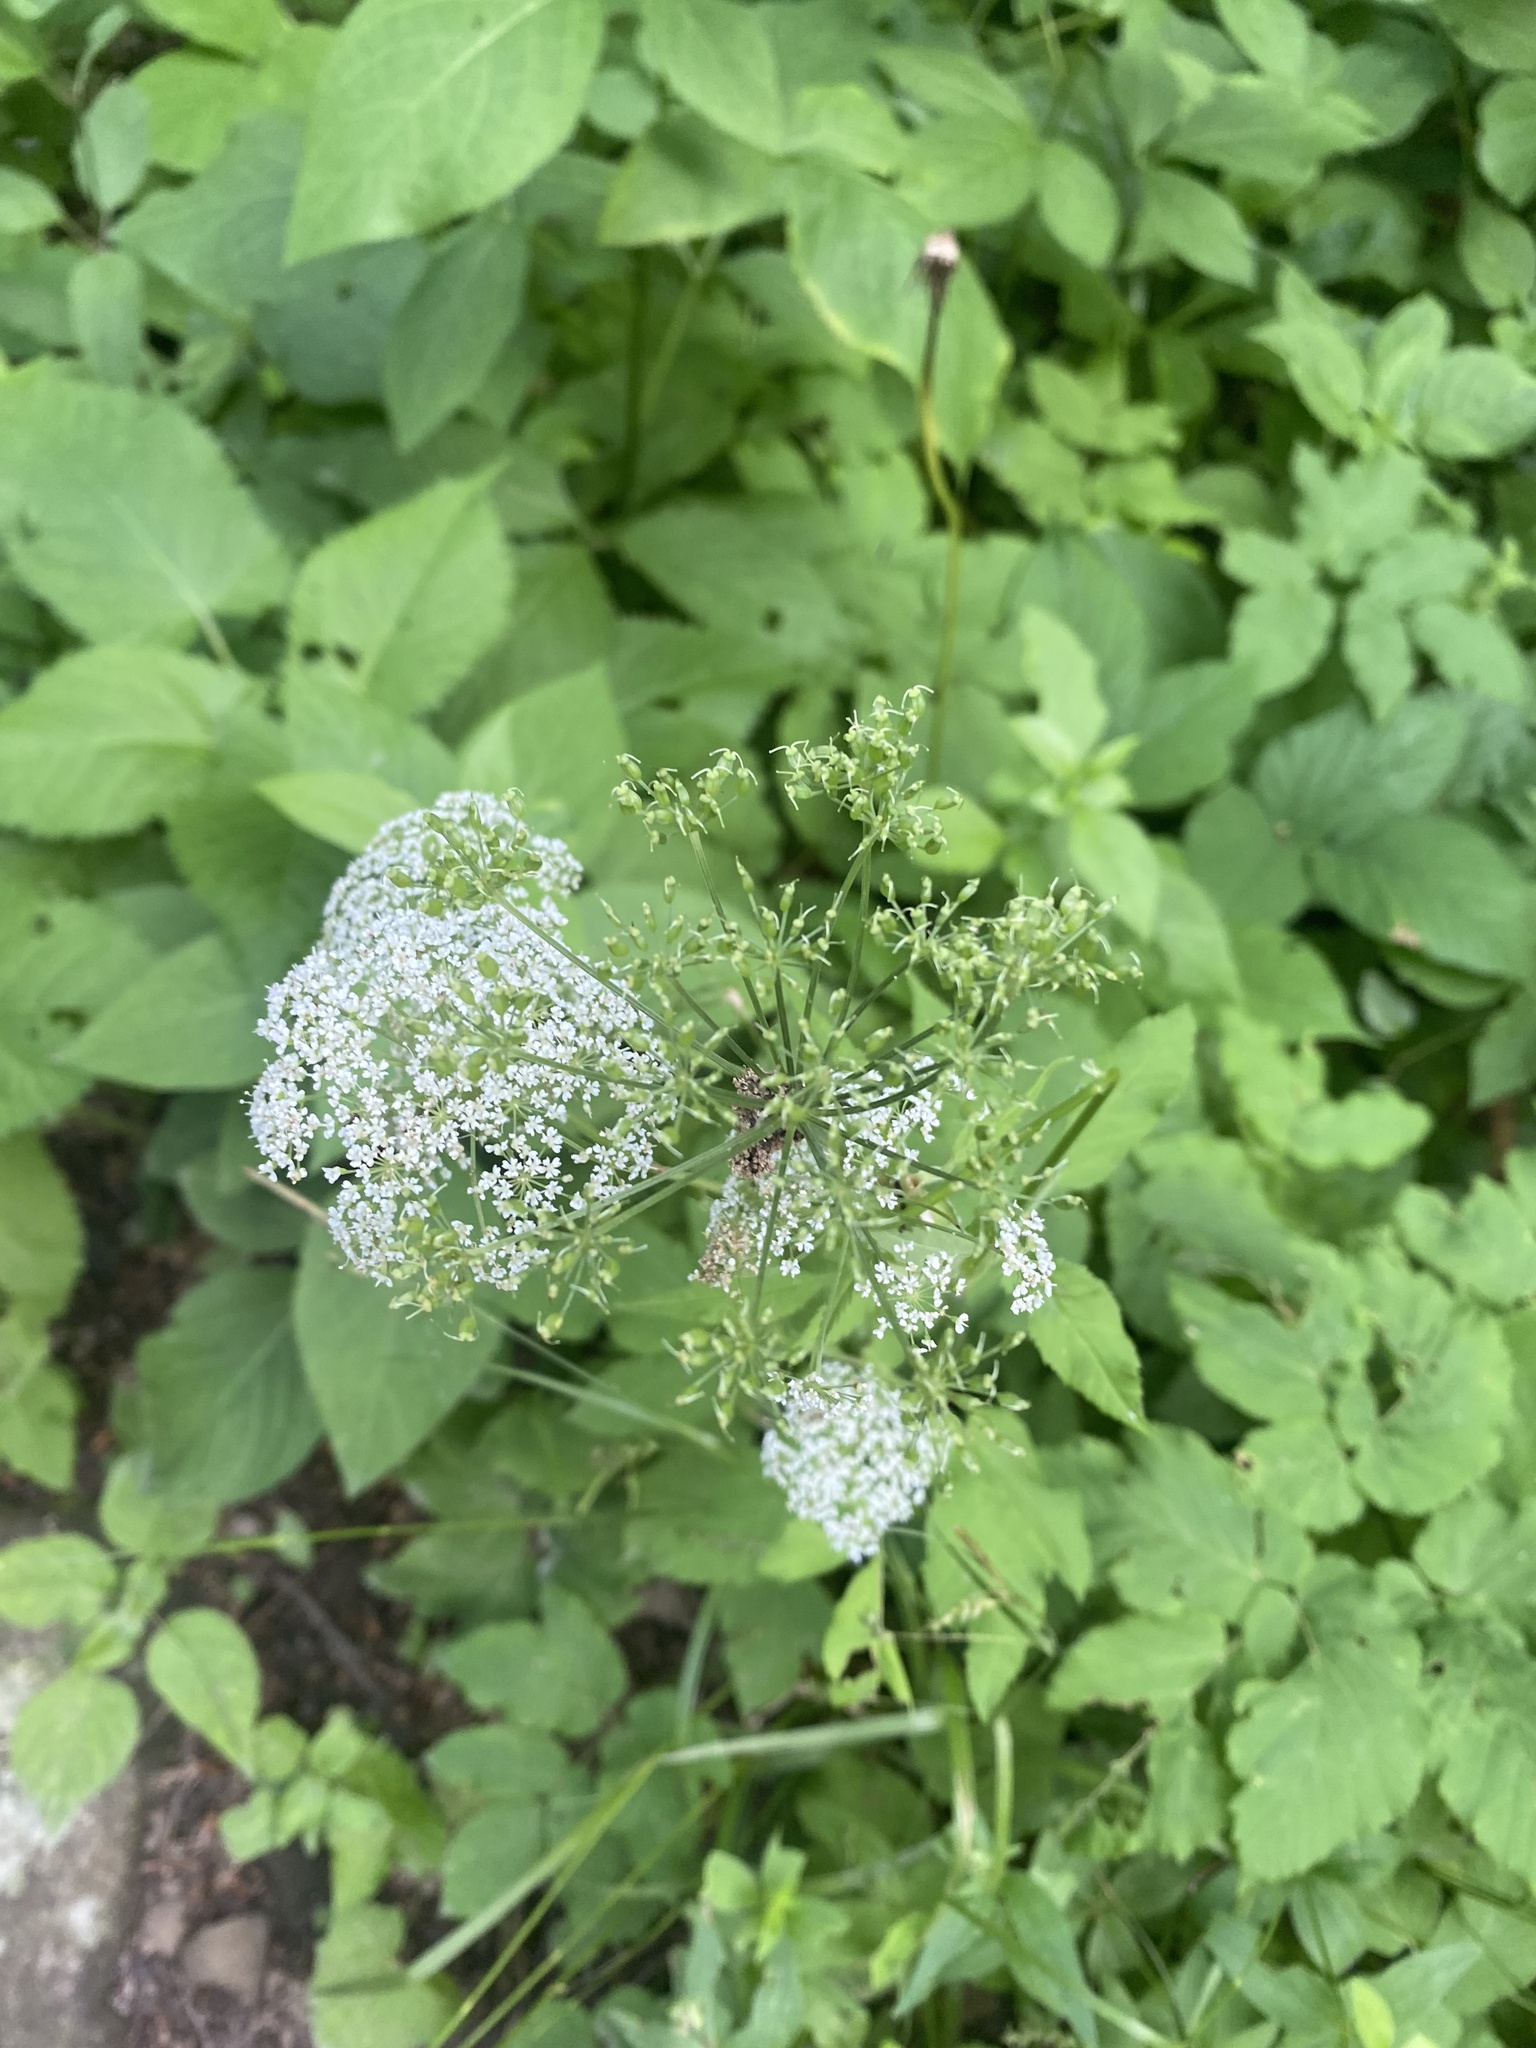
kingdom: Plantae
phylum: Tracheophyta
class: Magnoliopsida
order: Apiales
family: Apiaceae
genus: Aegopodium
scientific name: Aegopodium podagraria
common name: Ground-elder
